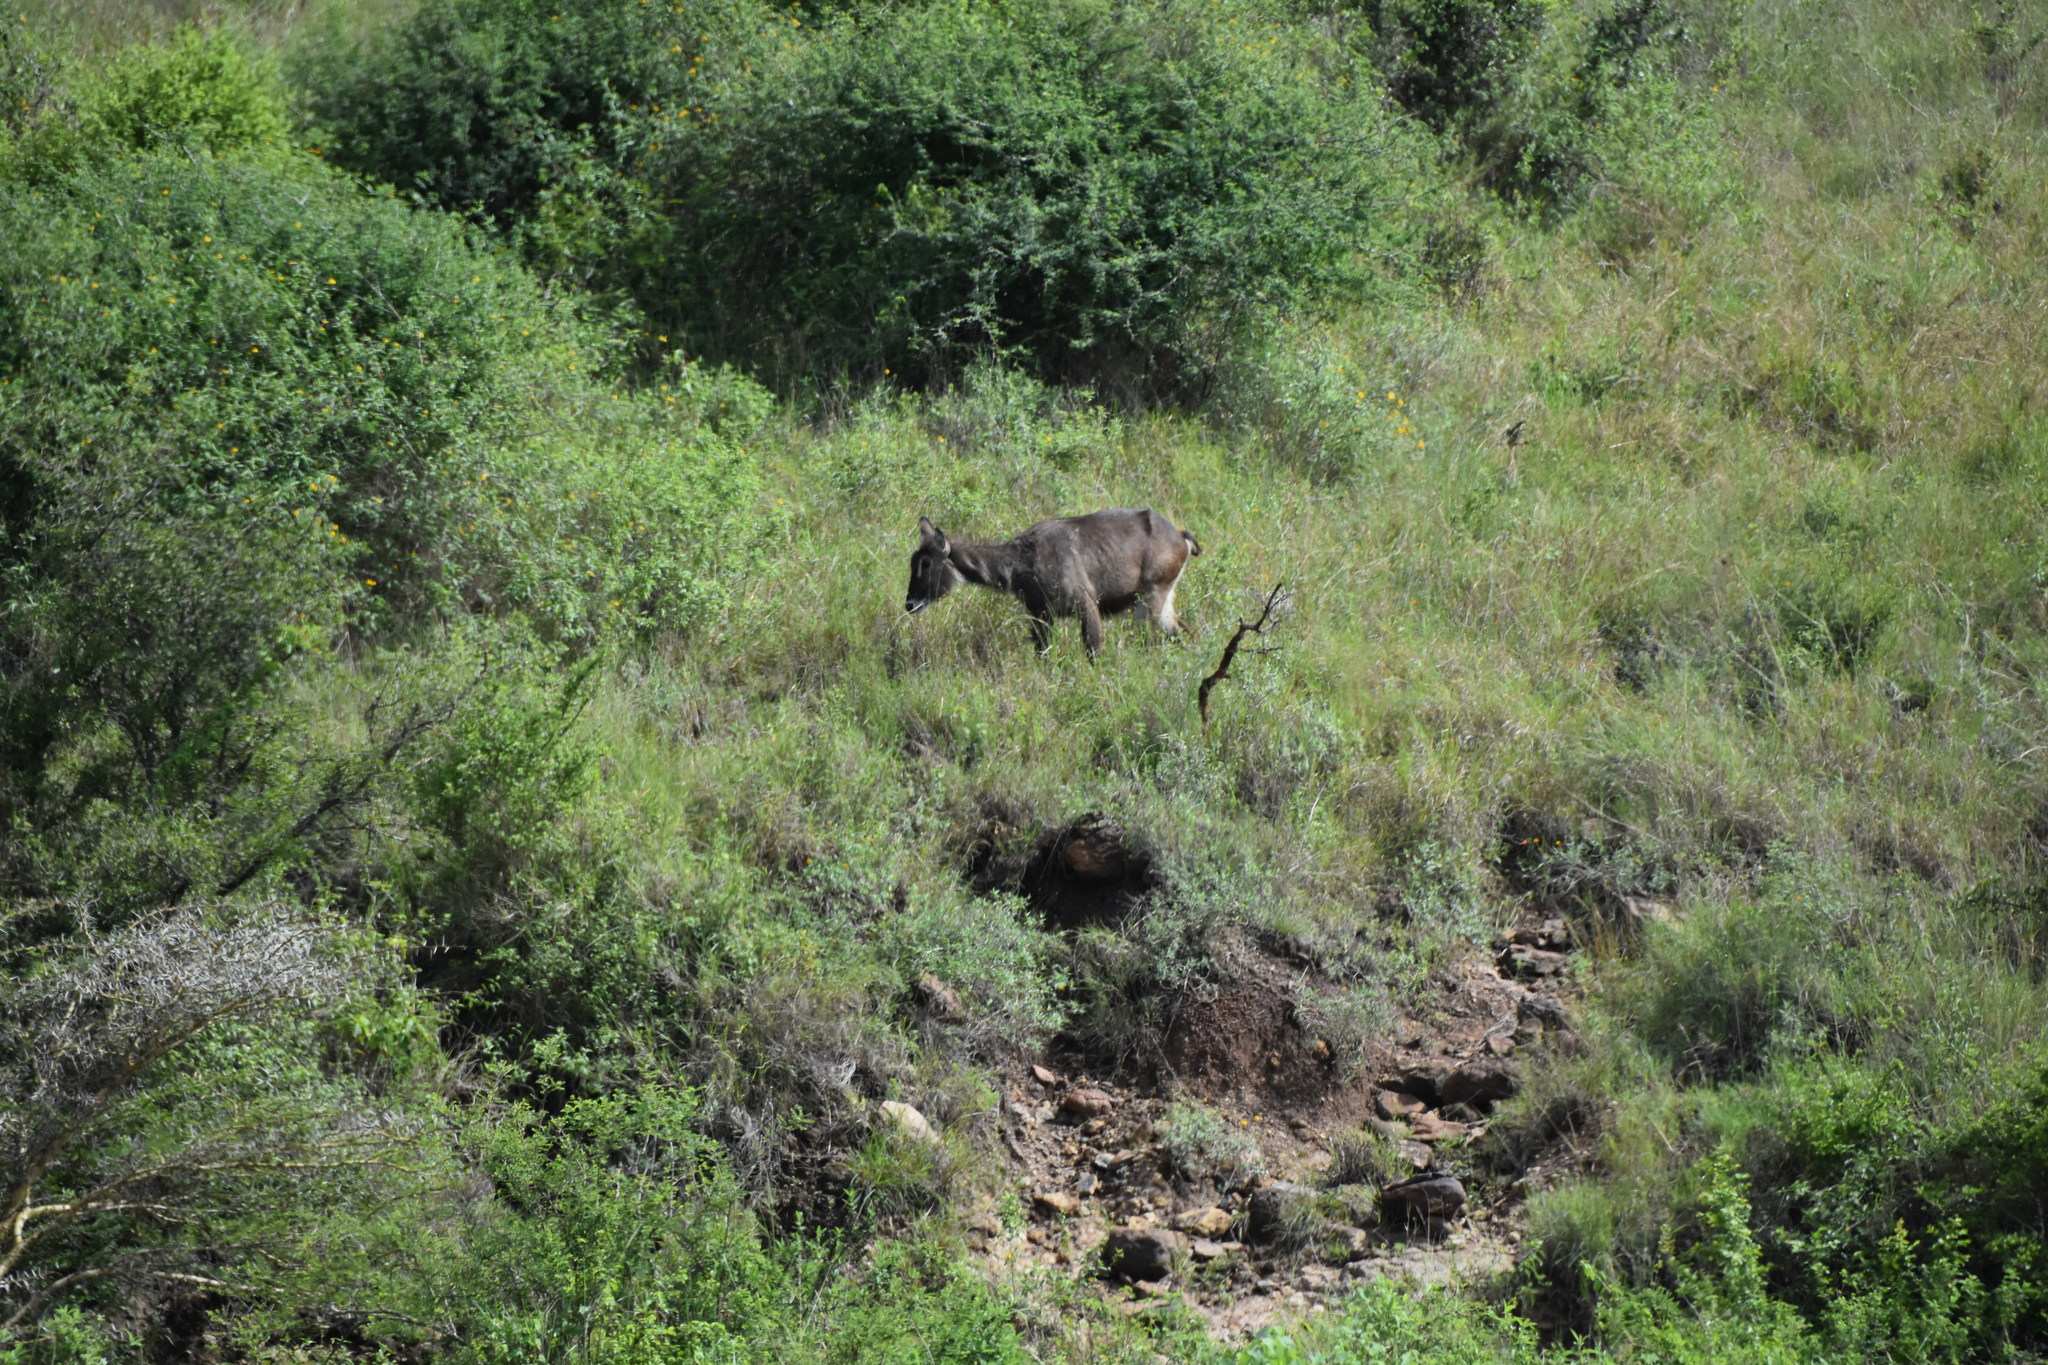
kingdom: Animalia
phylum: Chordata
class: Mammalia
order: Artiodactyla
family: Bovidae
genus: Kobus
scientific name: Kobus ellipsiprymnus
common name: Waterbuck
